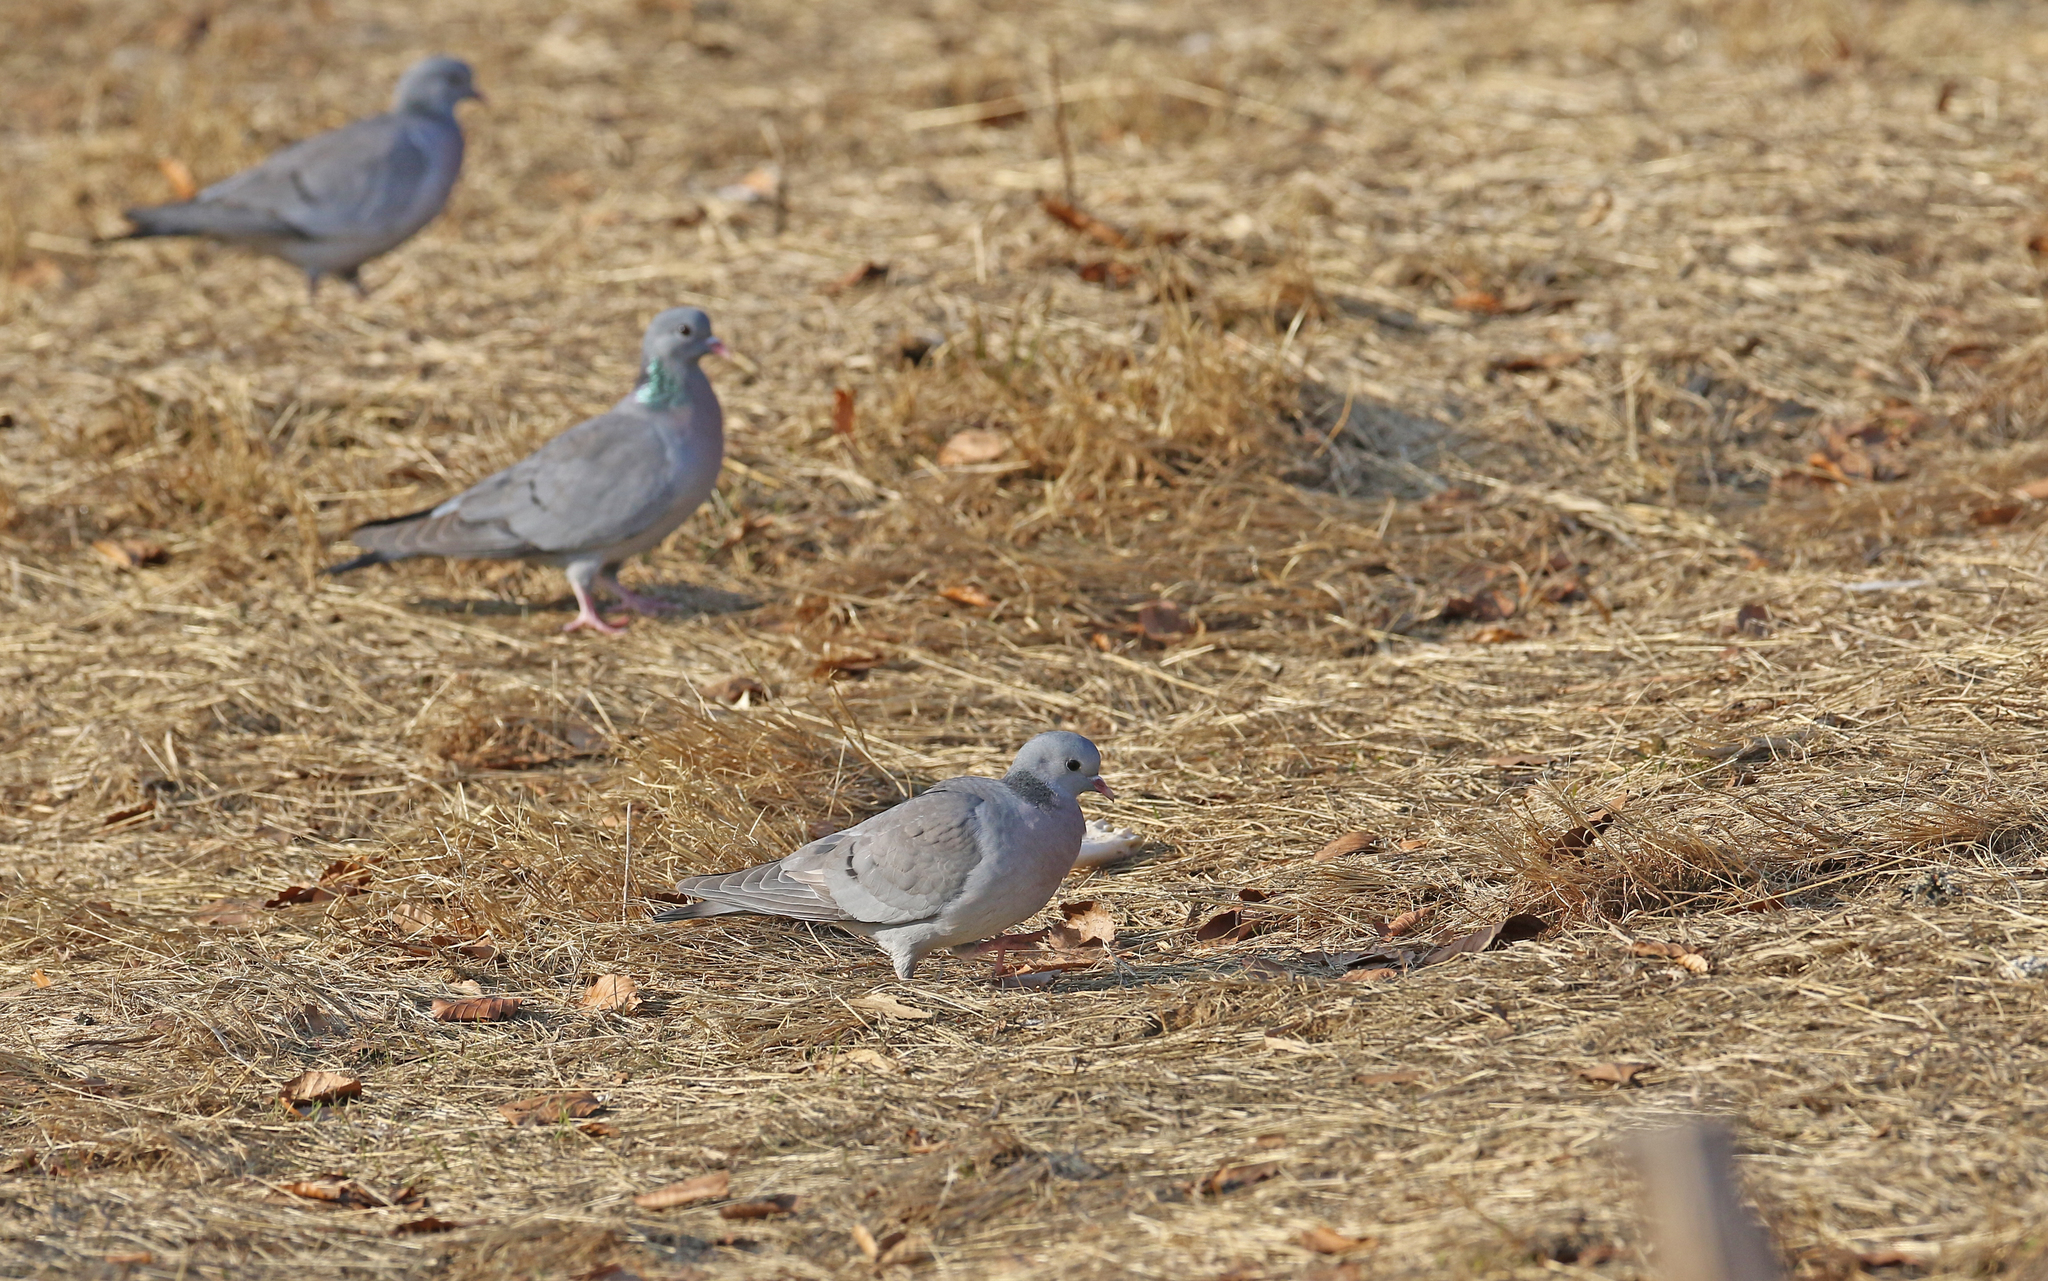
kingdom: Animalia
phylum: Chordata
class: Aves
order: Columbiformes
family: Columbidae
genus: Columba
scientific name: Columba oenas
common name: Stock dove
